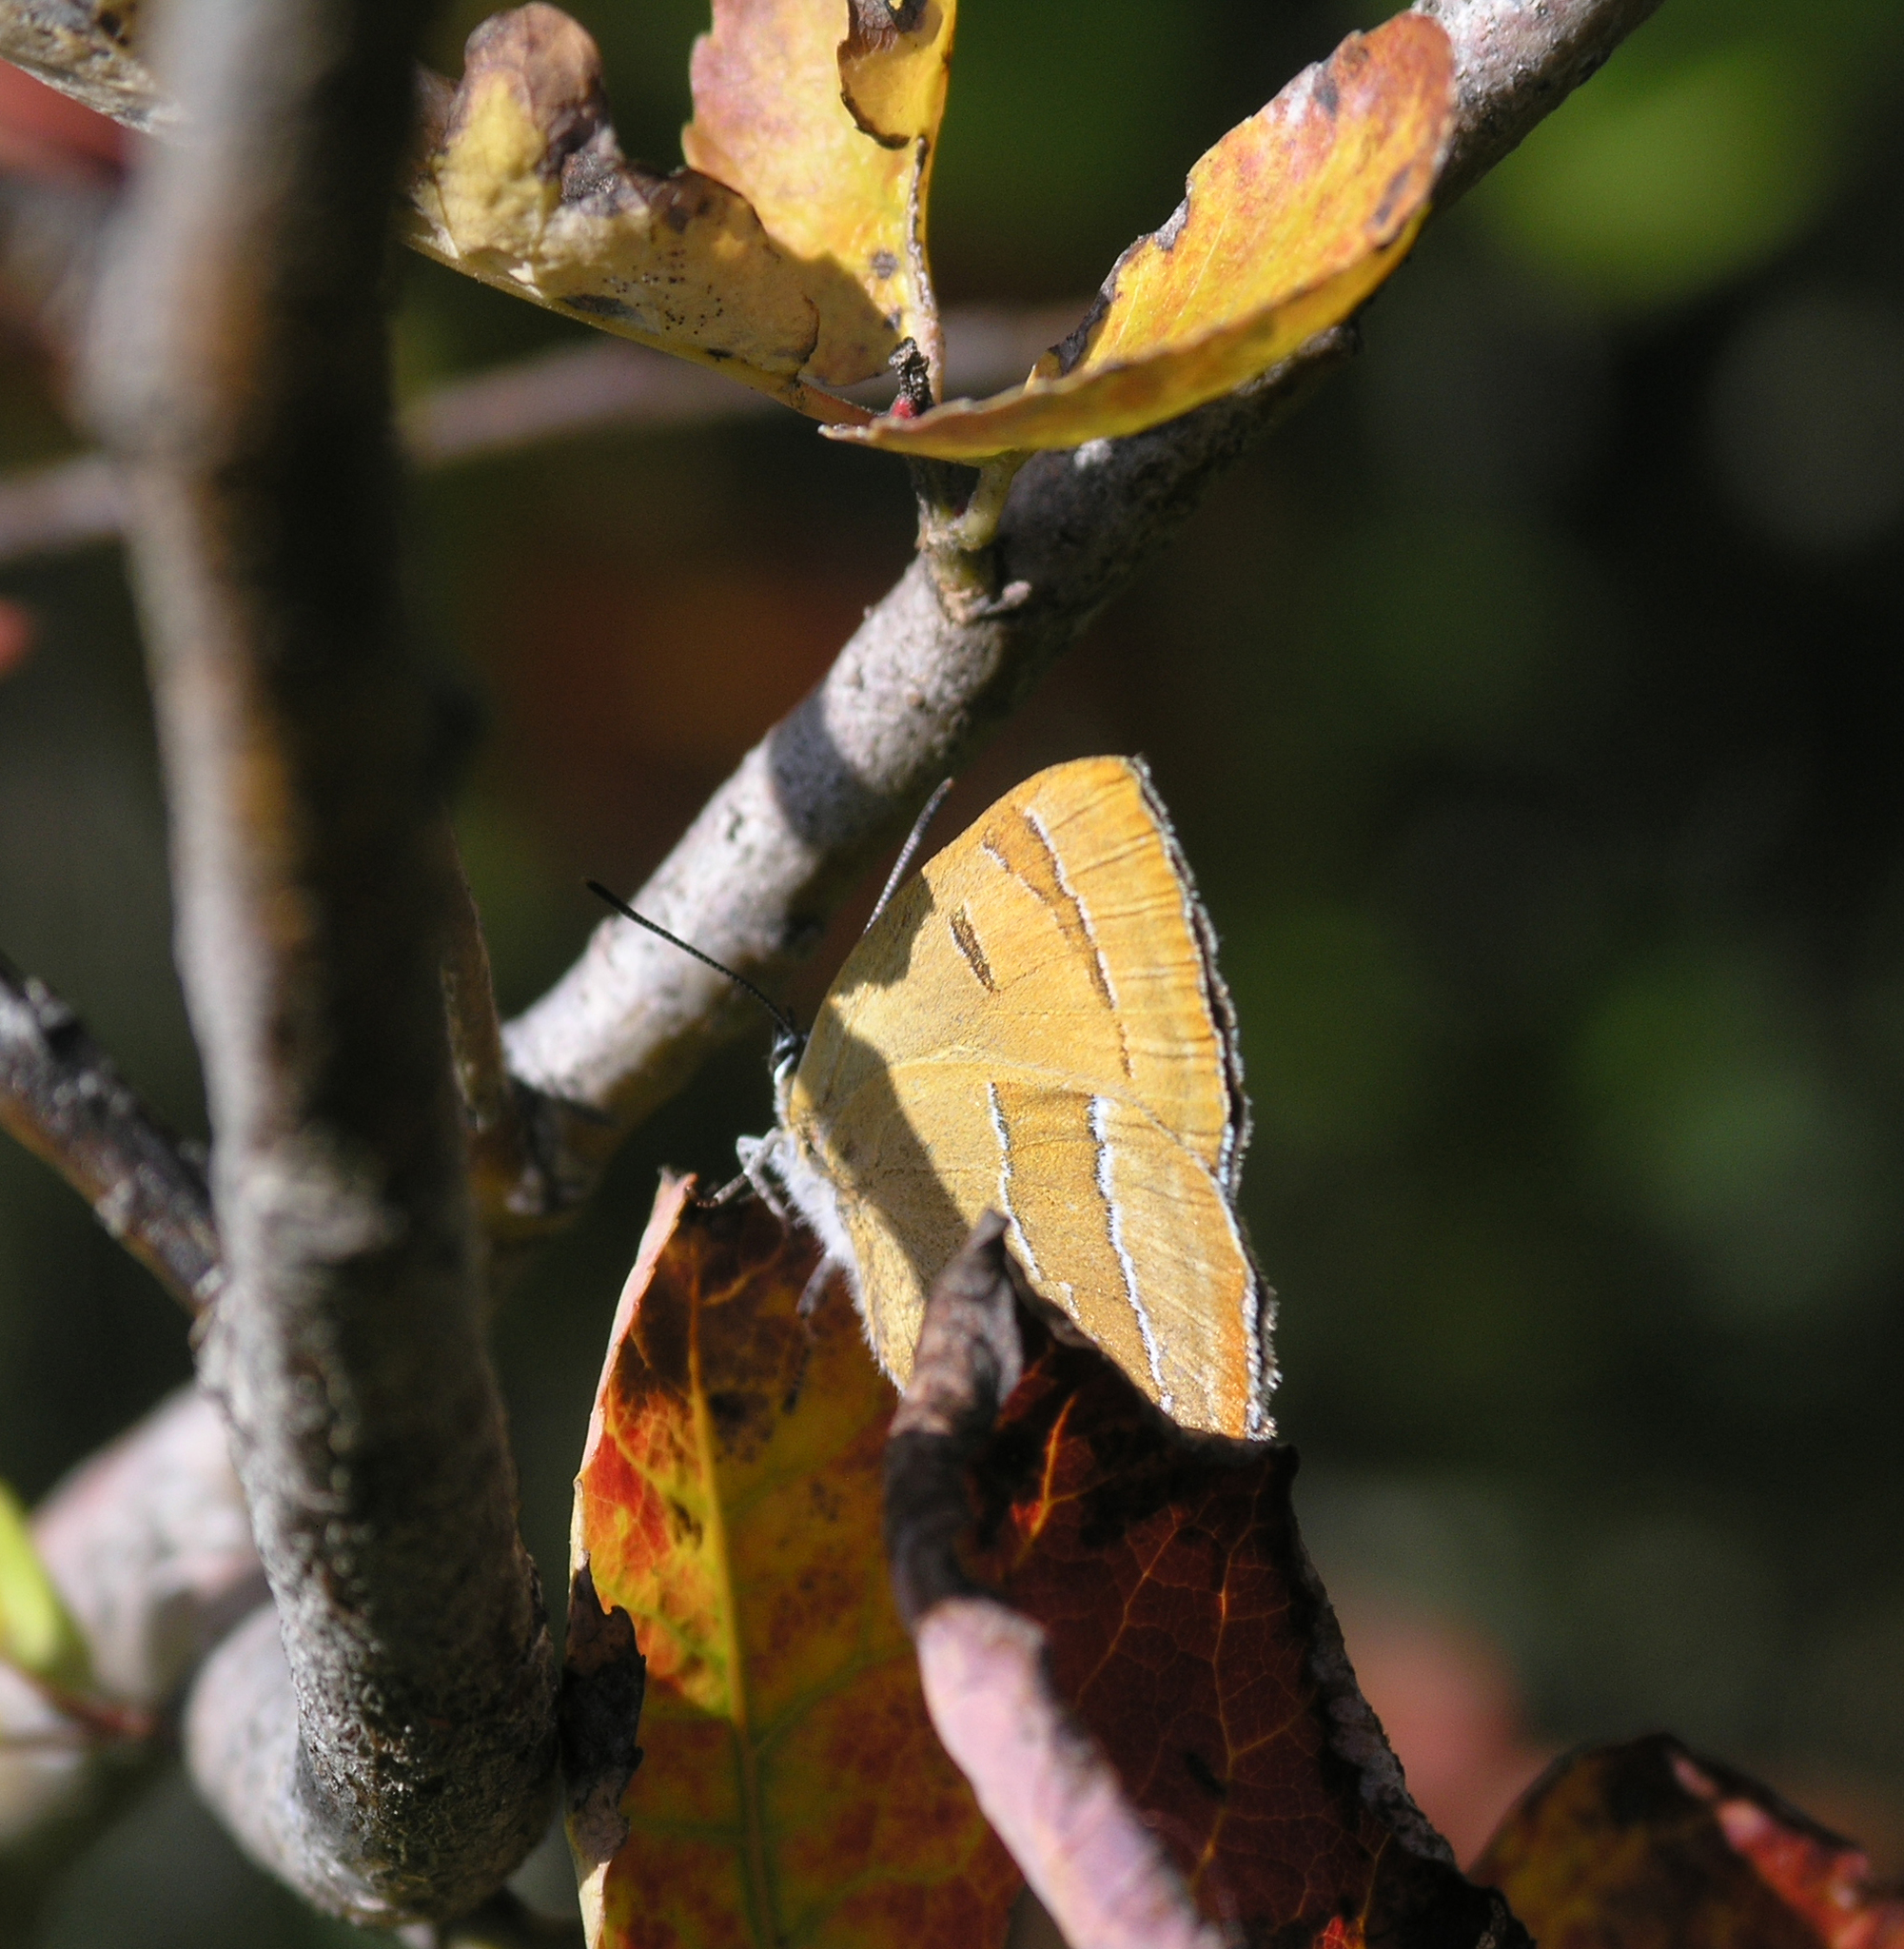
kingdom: Animalia
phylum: Arthropoda
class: Insecta
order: Lepidoptera
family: Lycaenidae
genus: Thecla
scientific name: Thecla betulae
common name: Brown hairstreak
